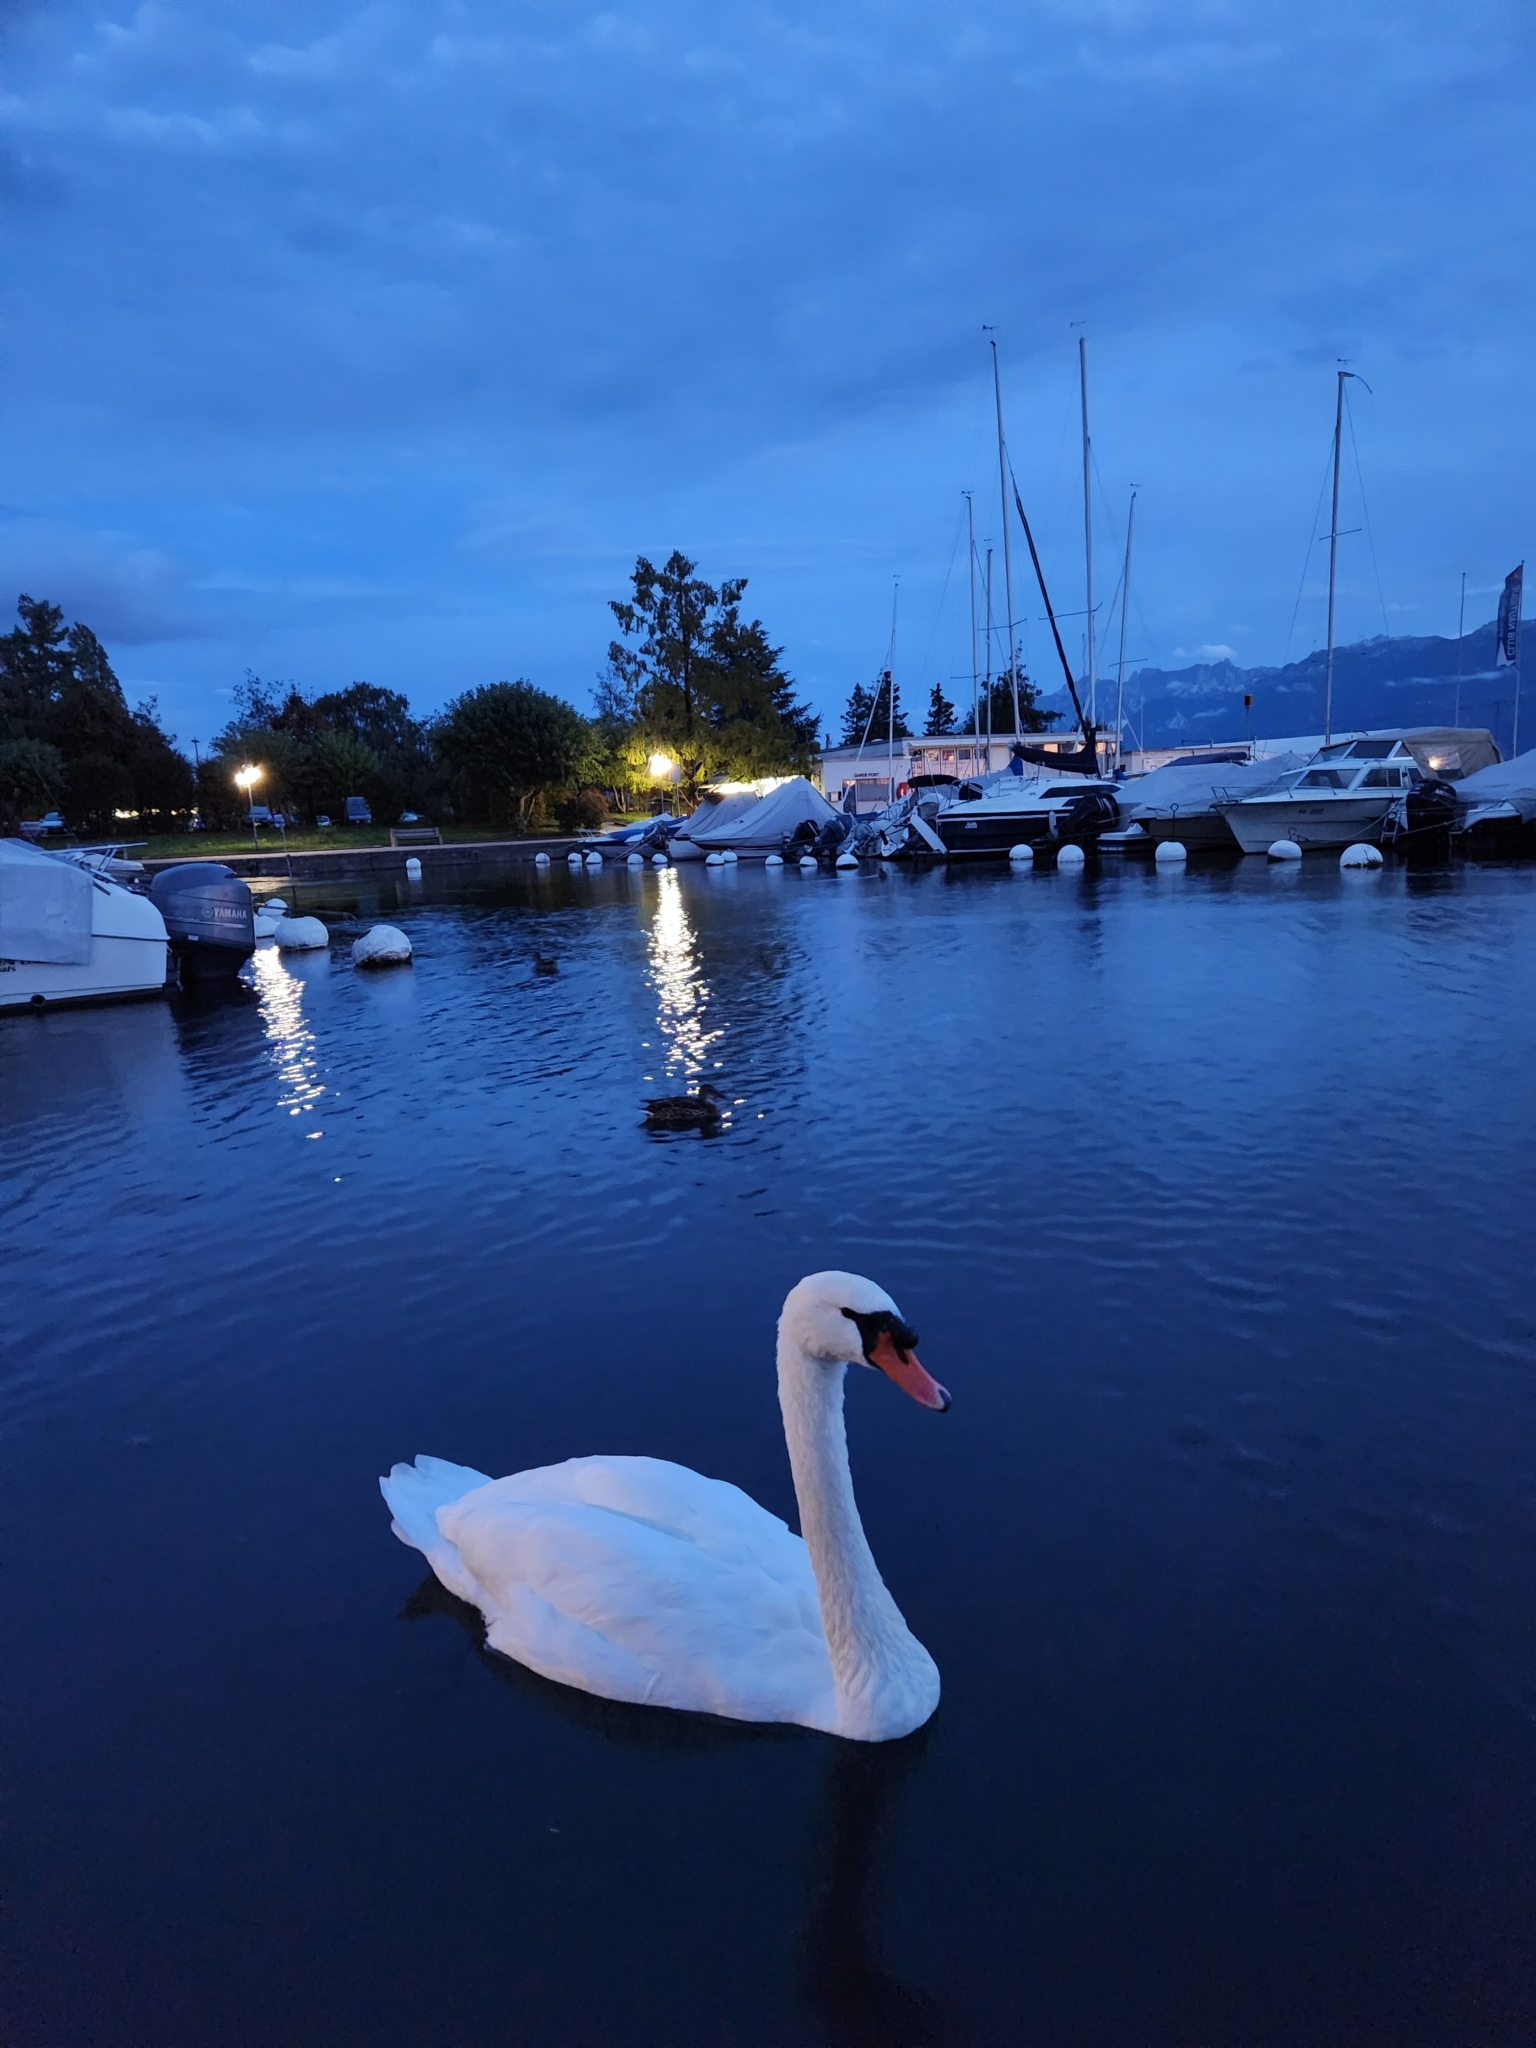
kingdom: Animalia
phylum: Chordata
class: Aves
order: Anseriformes
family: Anatidae
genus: Cygnus
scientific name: Cygnus olor
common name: Mute swan
